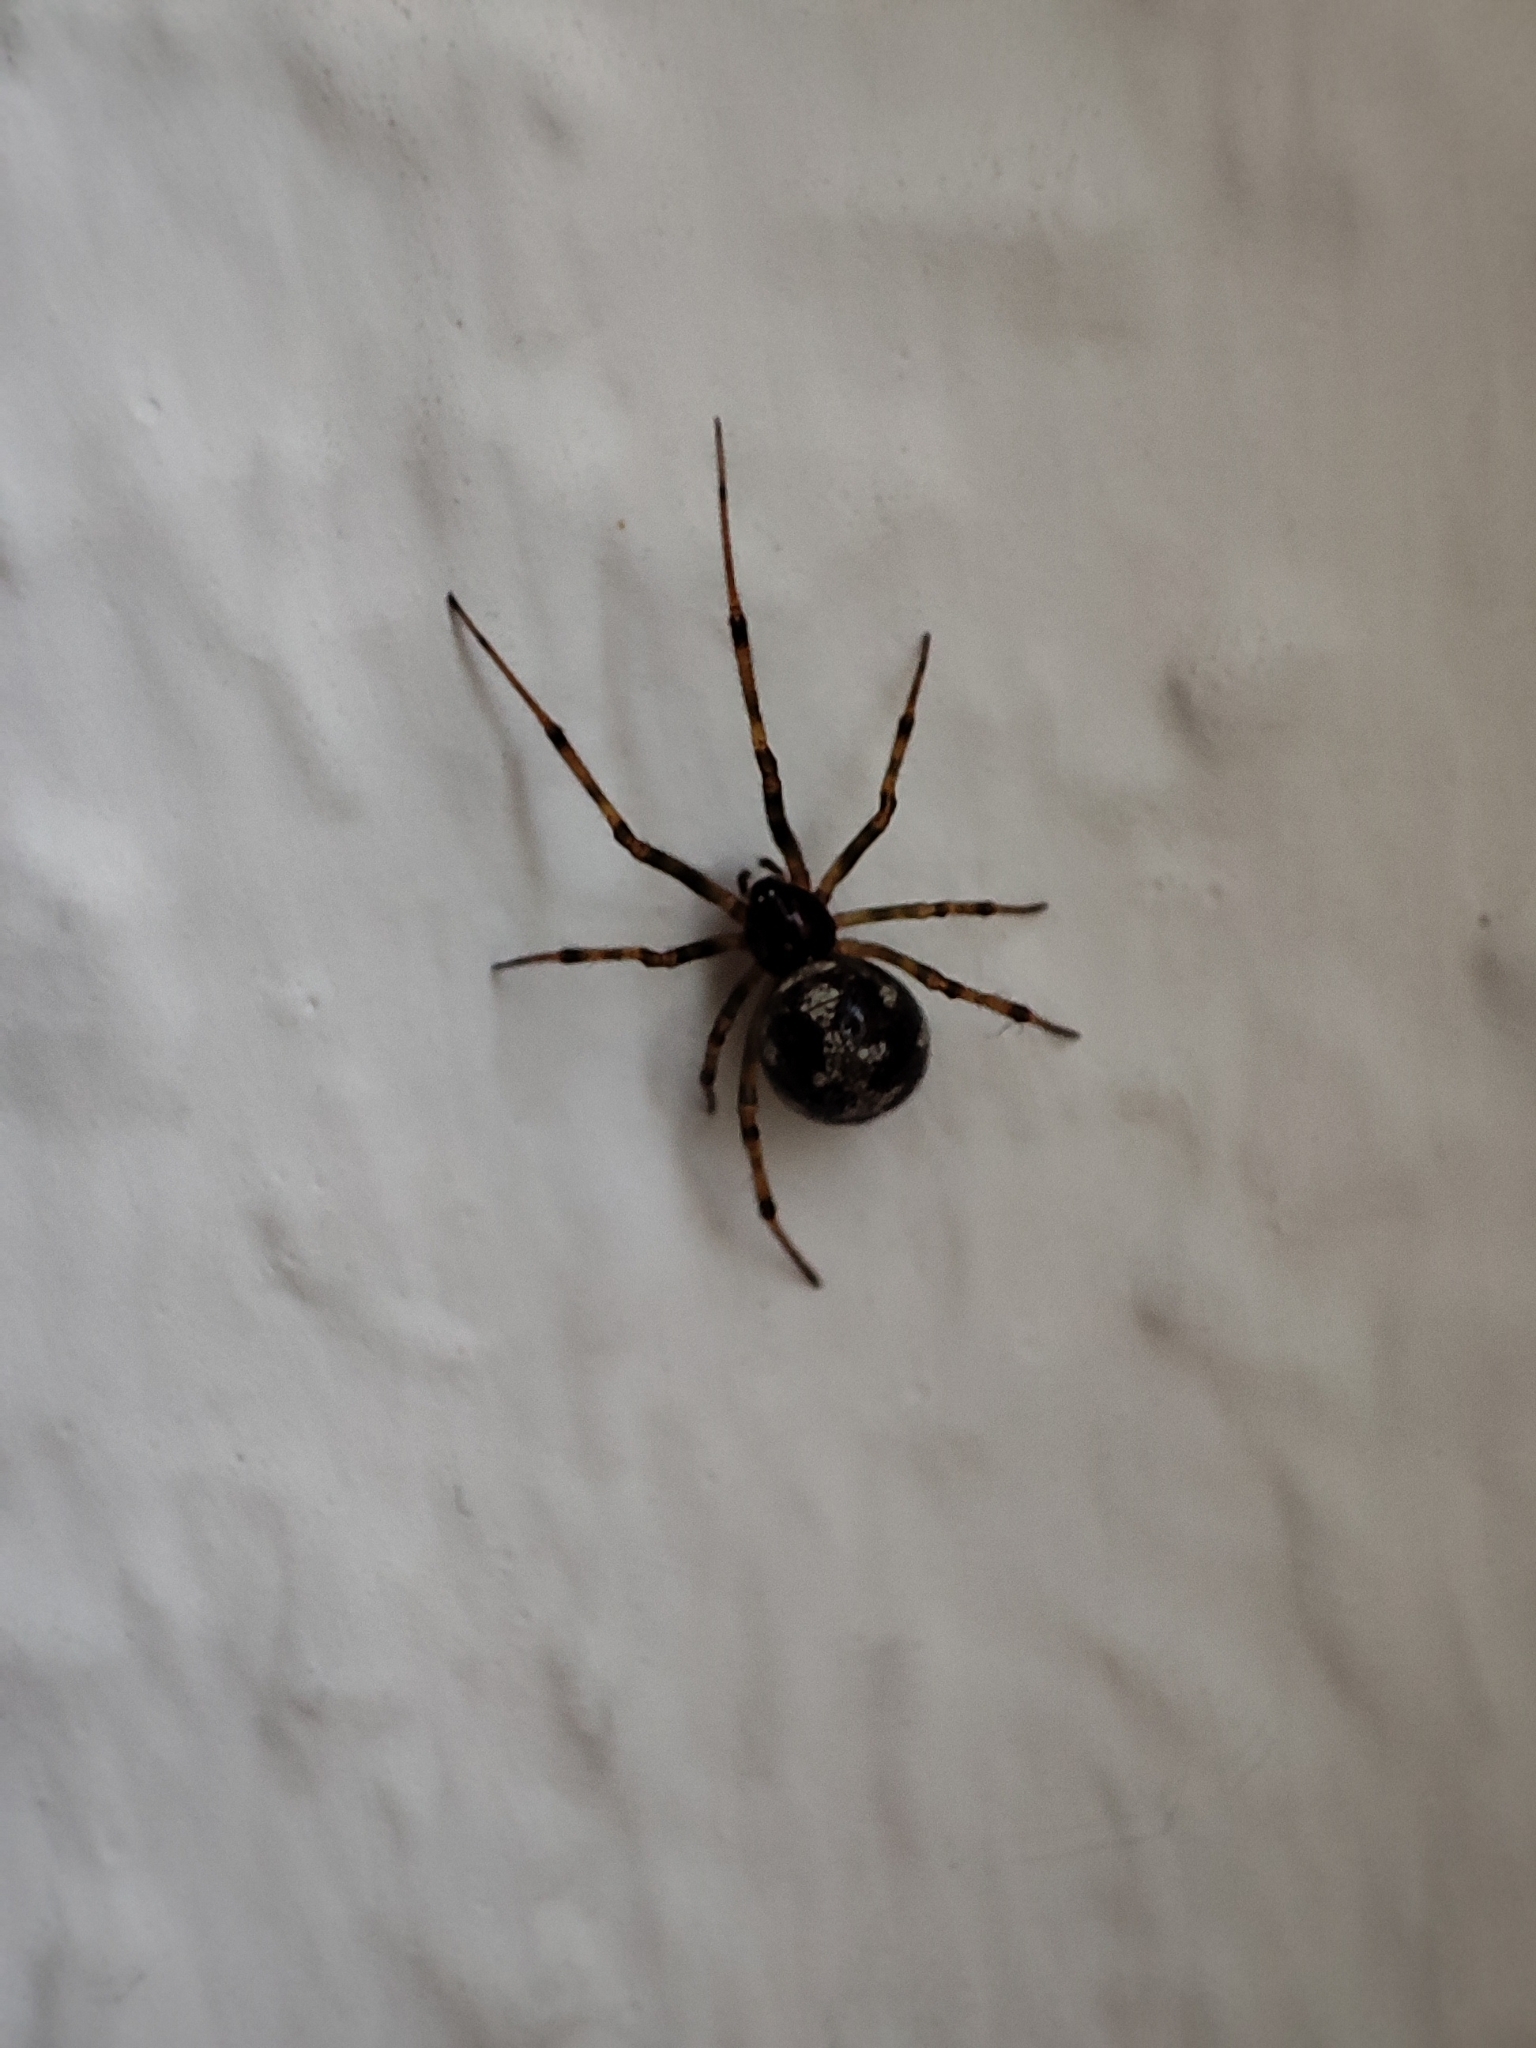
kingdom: Animalia
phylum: Arthropoda
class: Arachnida
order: Araneae
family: Theridiidae
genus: Steatoda
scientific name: Steatoda triangulosa
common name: Triangulate bud spider
